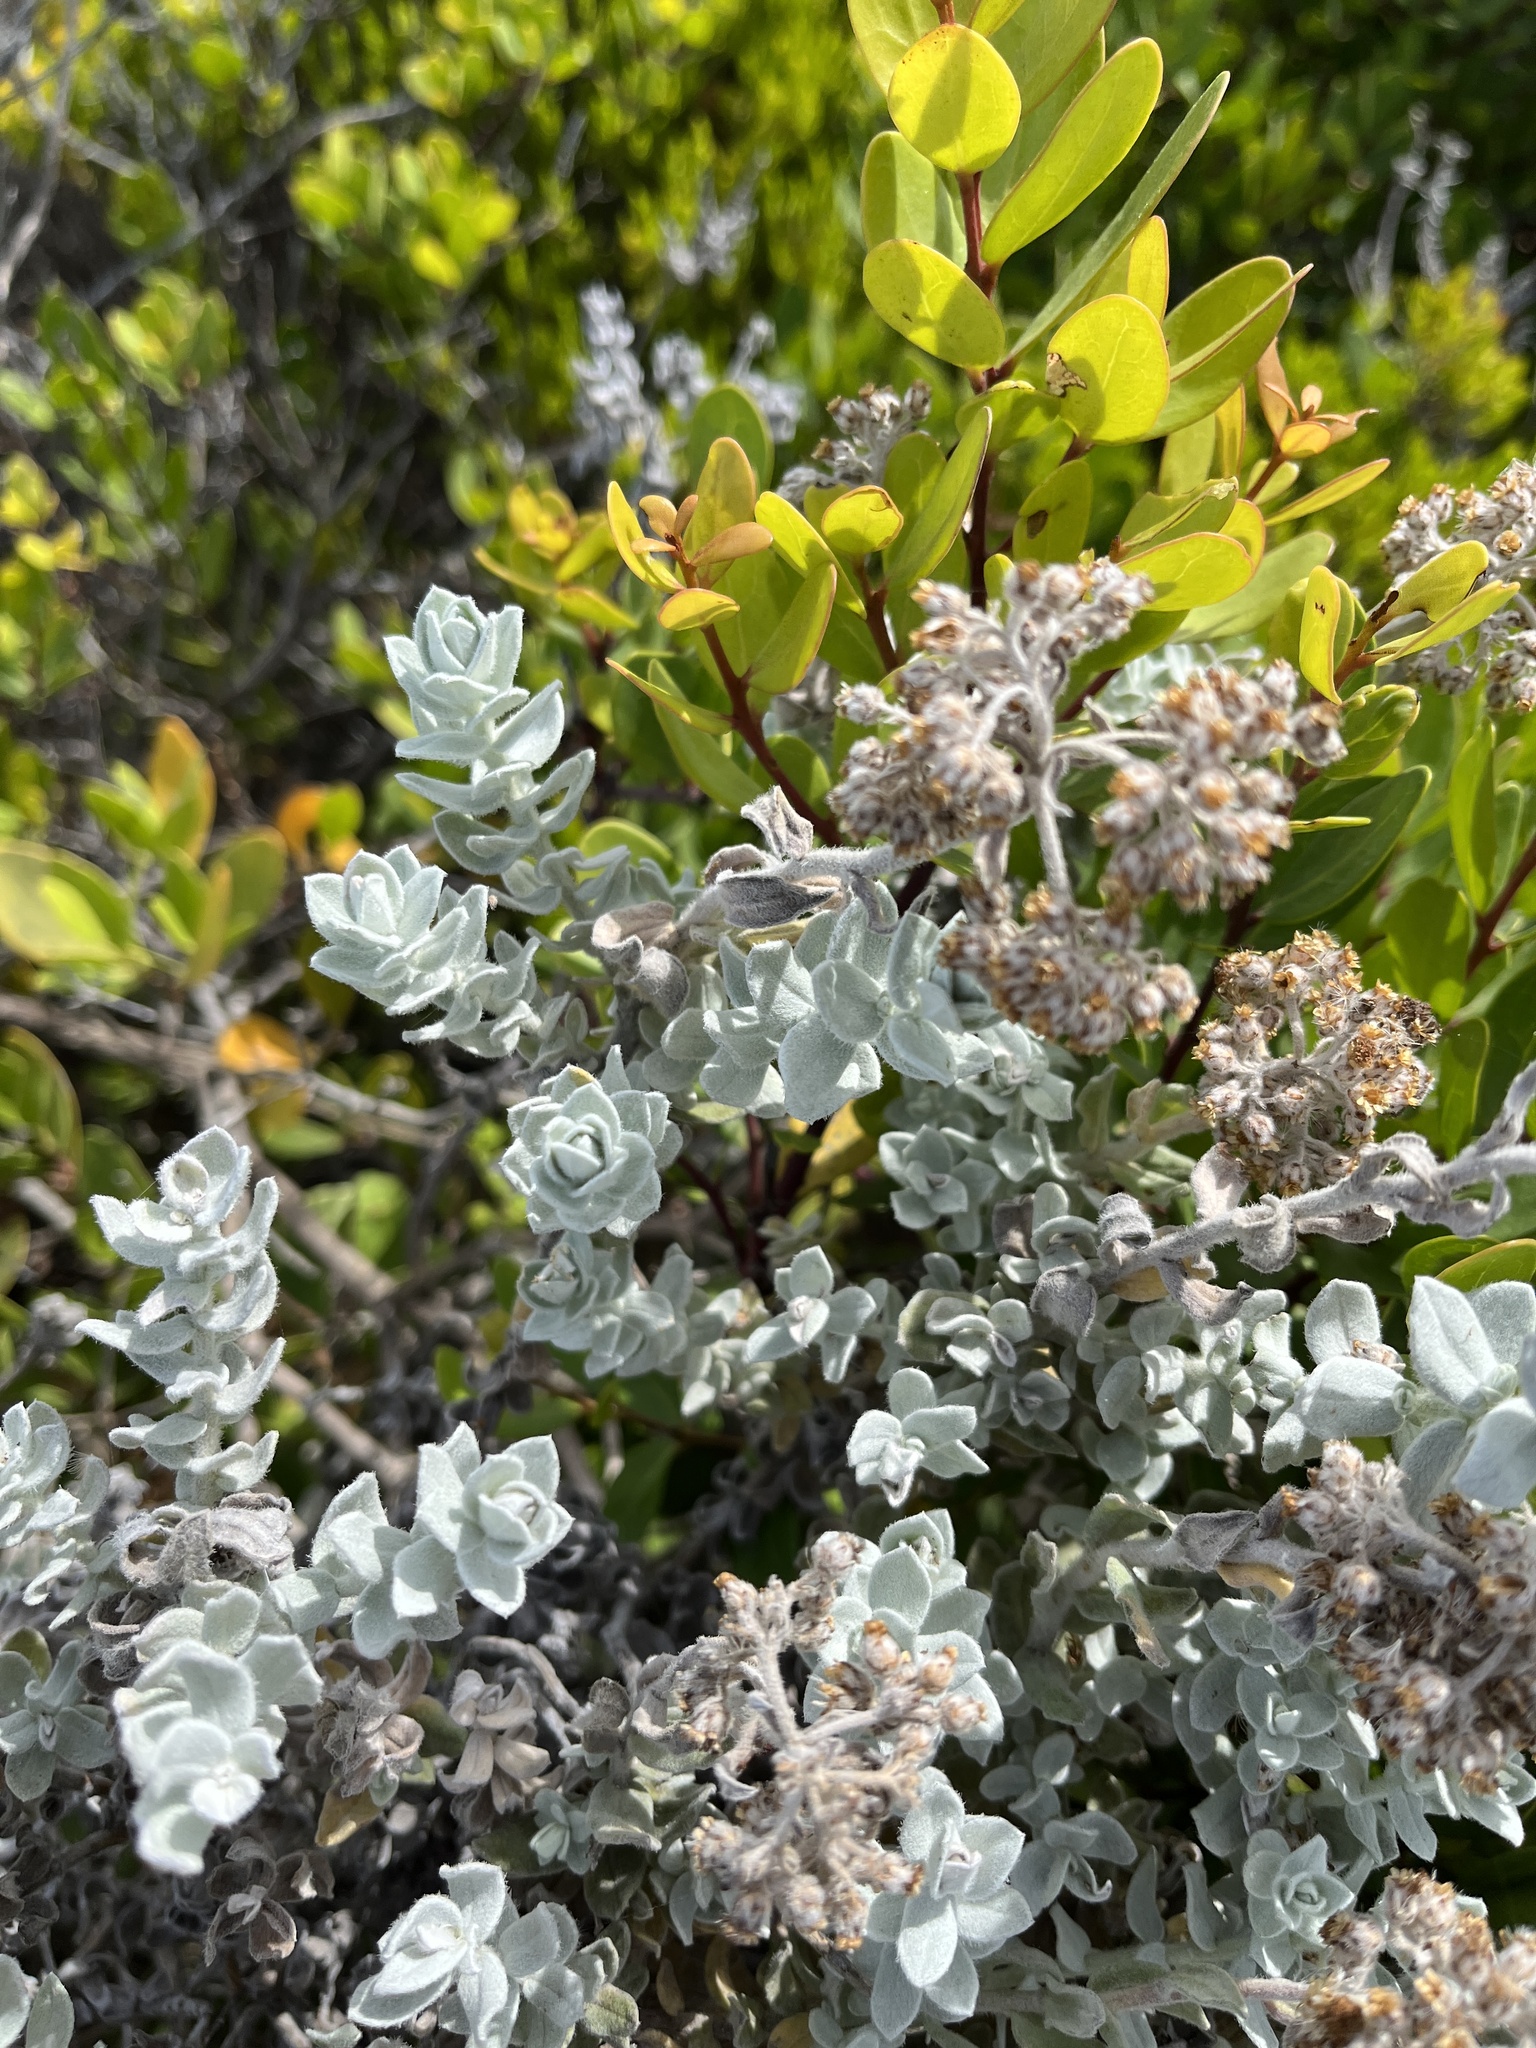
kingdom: Plantae
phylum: Tracheophyta
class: Magnoliopsida
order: Asterales
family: Asteraceae
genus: Helichrysum
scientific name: Helichrysum dasyanthum
